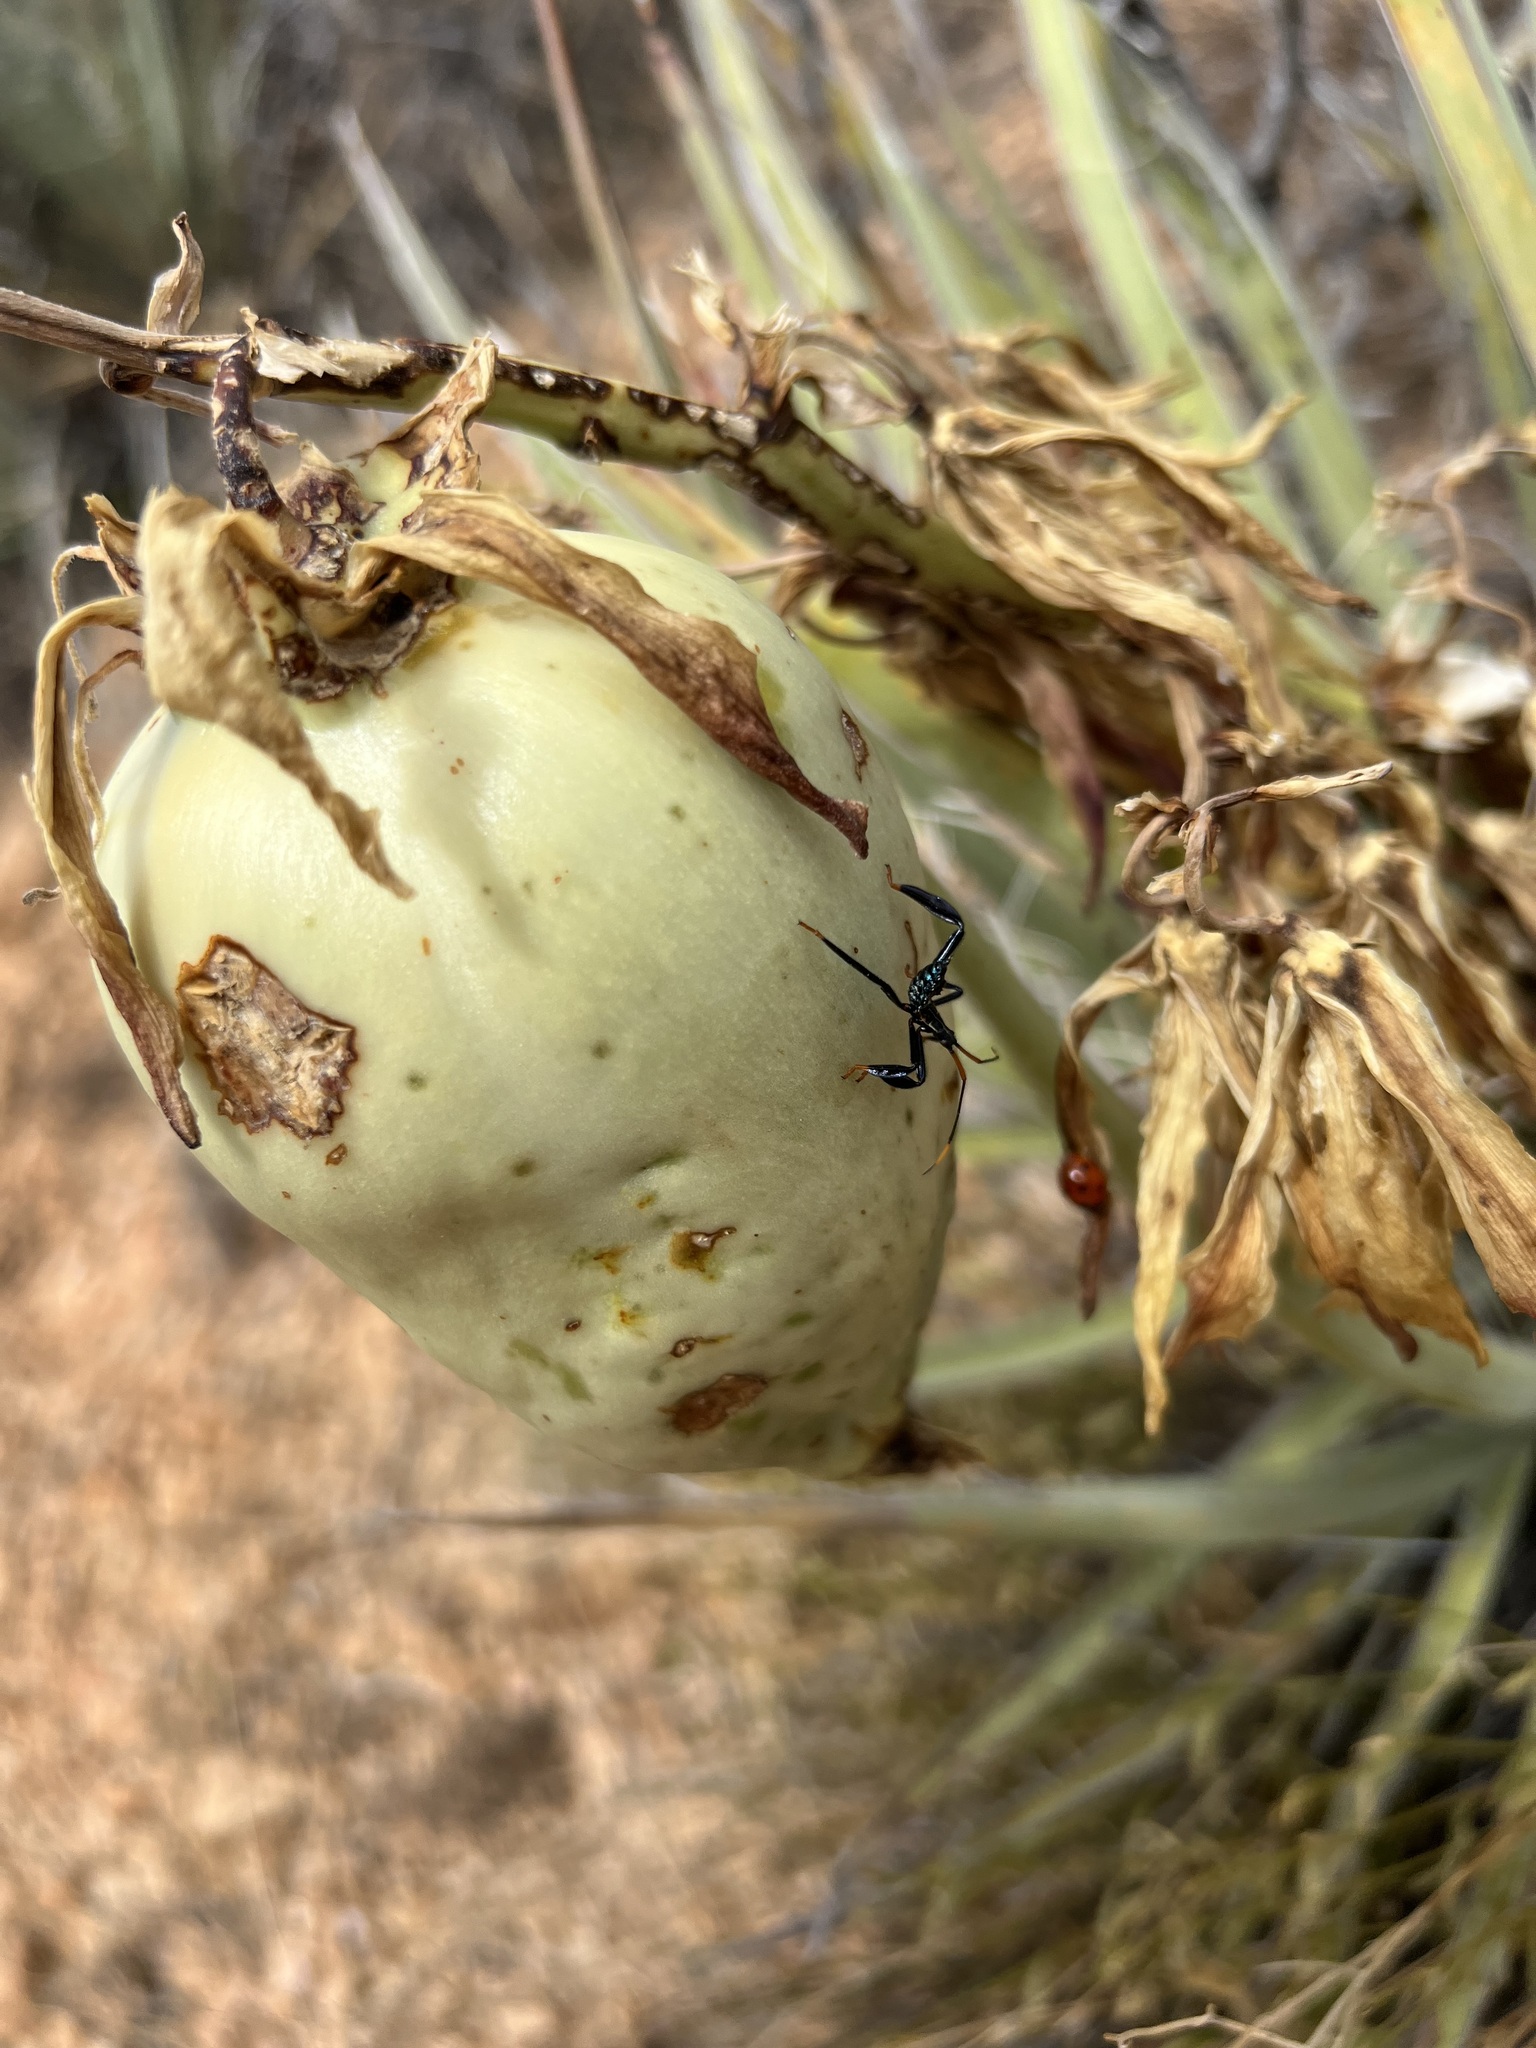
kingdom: Animalia
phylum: Arthropoda
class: Insecta
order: Hemiptera
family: Coreidae
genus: Acanthocephala
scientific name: Acanthocephala thomasi
